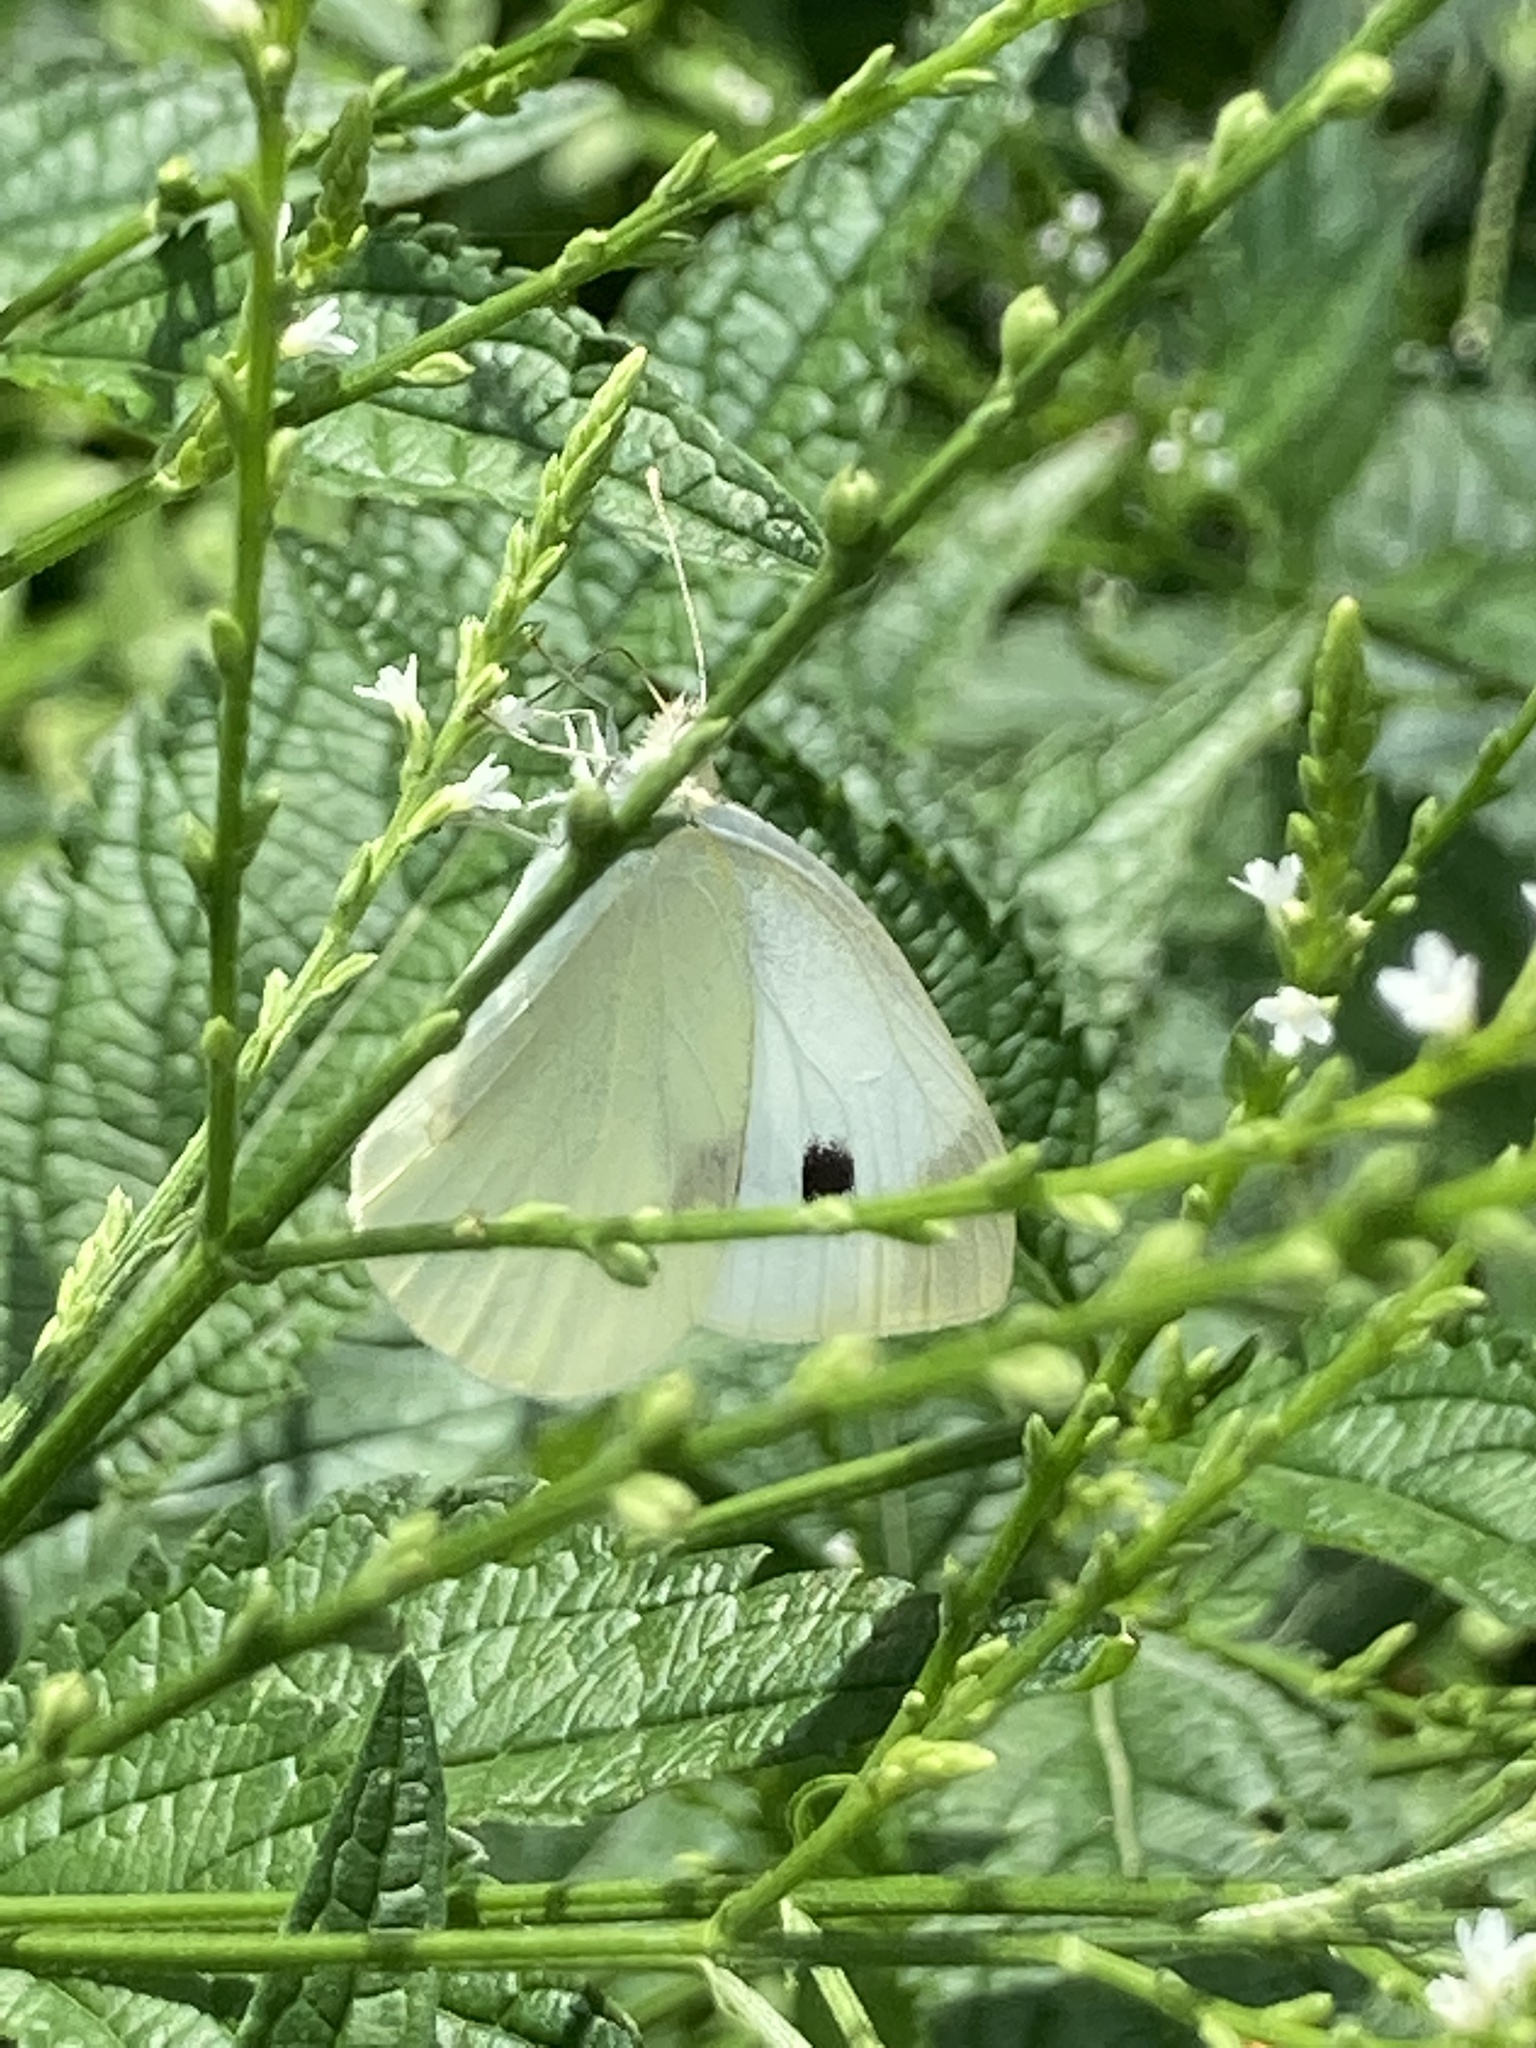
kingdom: Animalia
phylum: Arthropoda
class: Insecta
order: Lepidoptera
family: Pieridae
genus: Pieris
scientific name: Pieris rapae
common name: Small white
